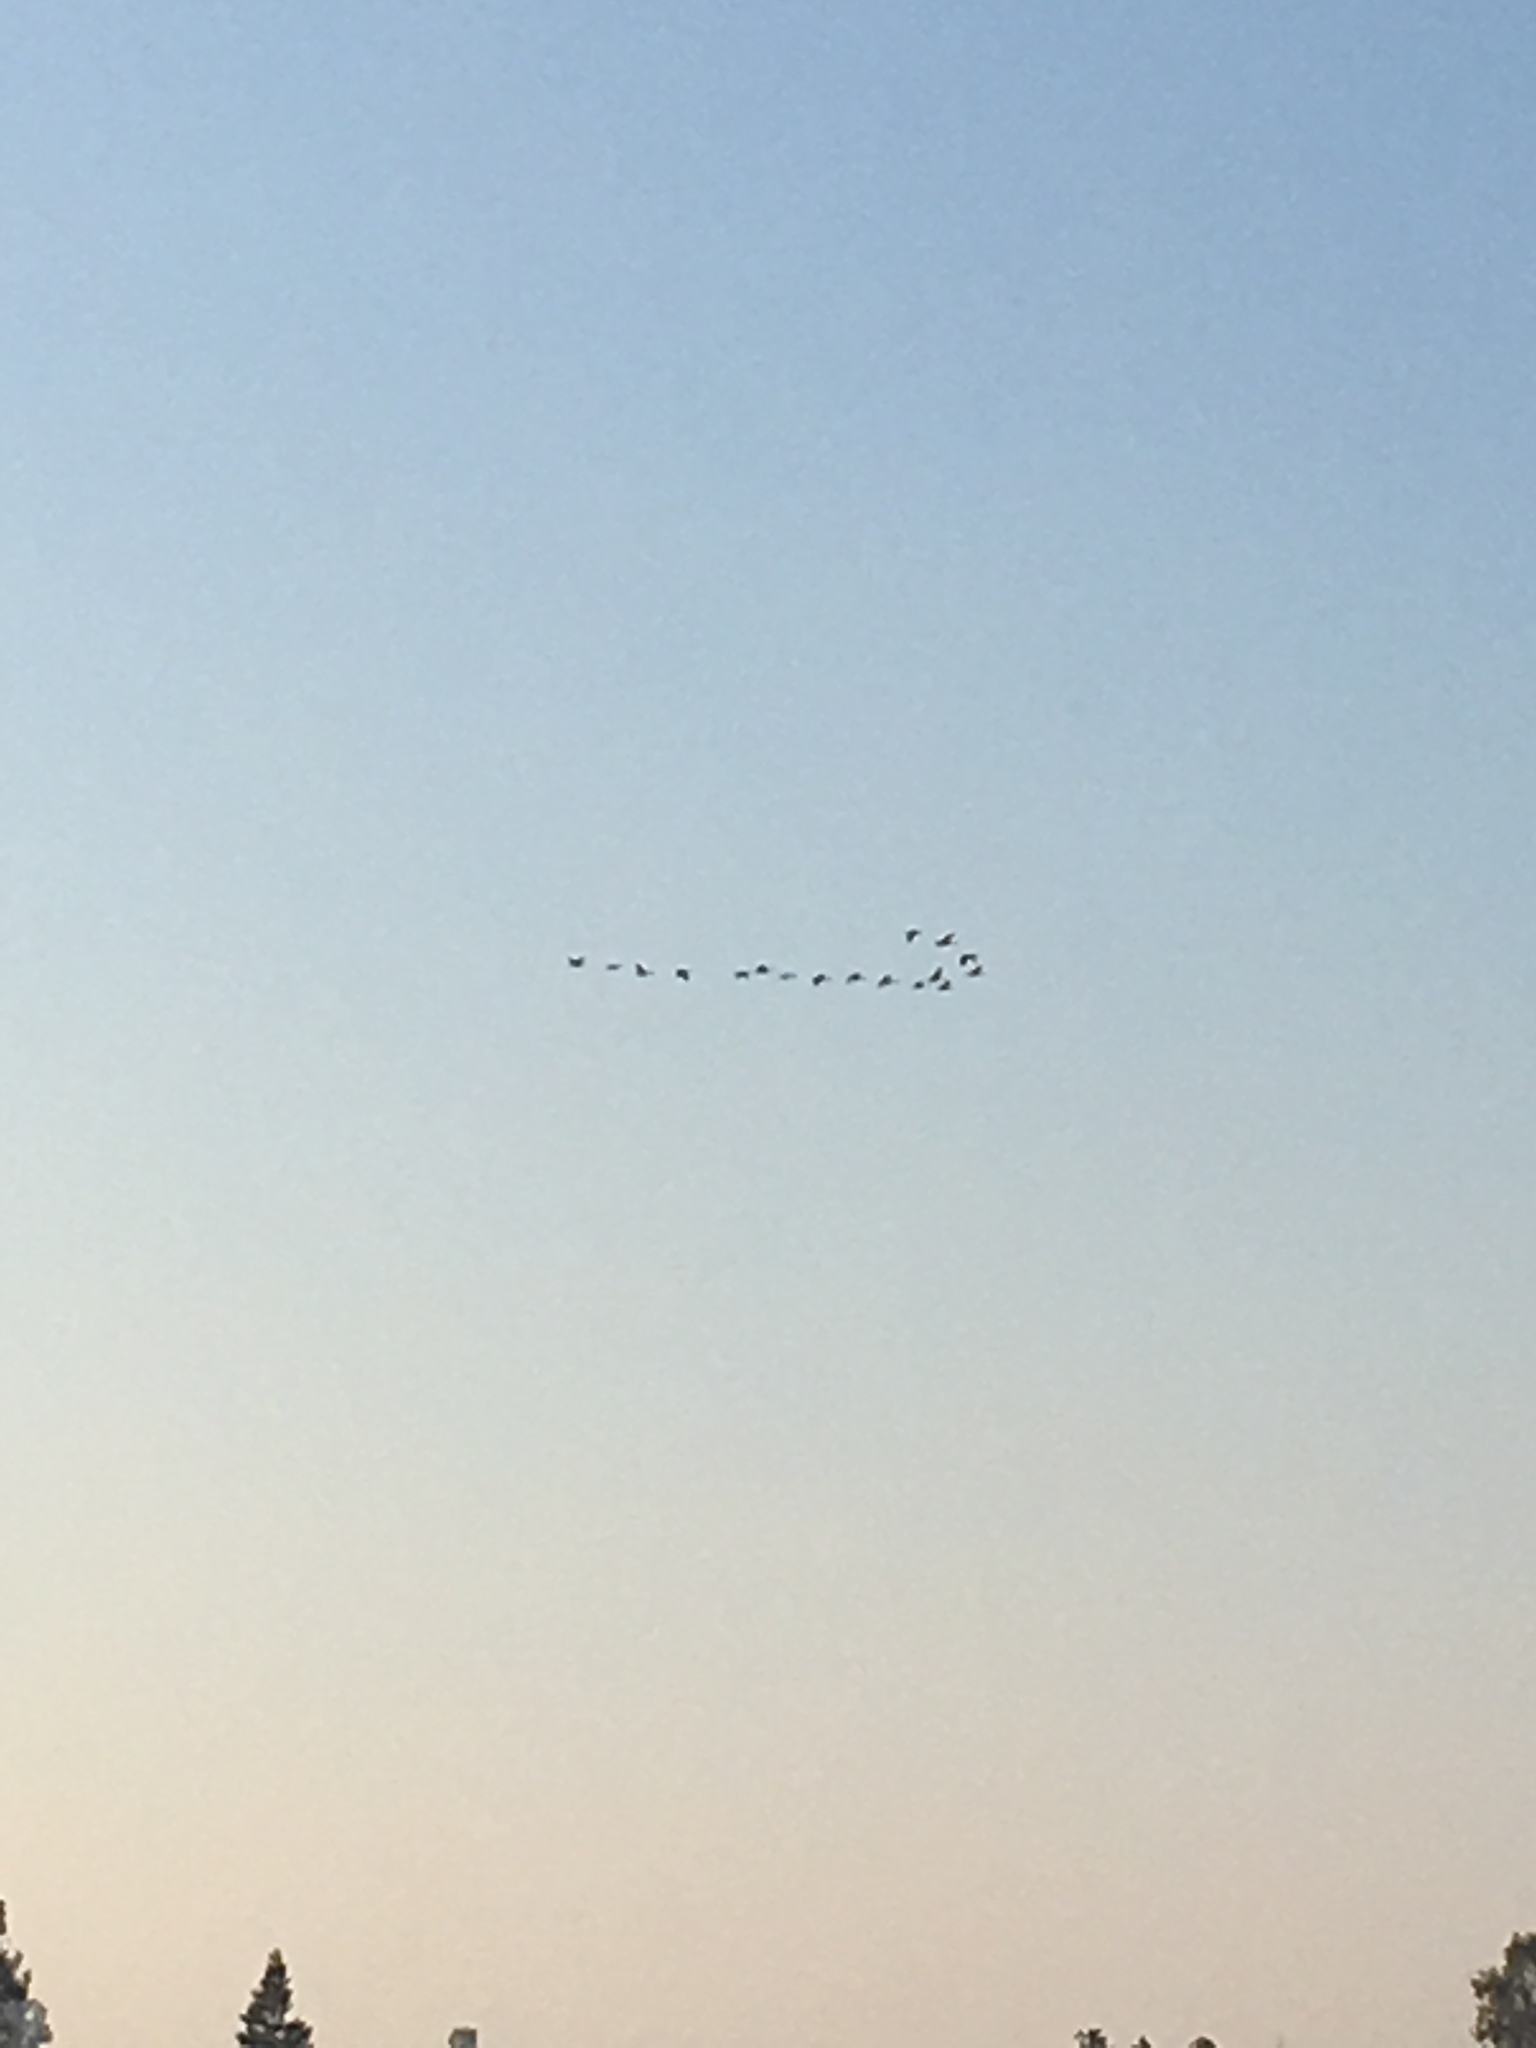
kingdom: Animalia
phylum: Chordata
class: Aves
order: Anseriformes
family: Anatidae
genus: Branta
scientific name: Branta canadensis
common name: Canada goose
